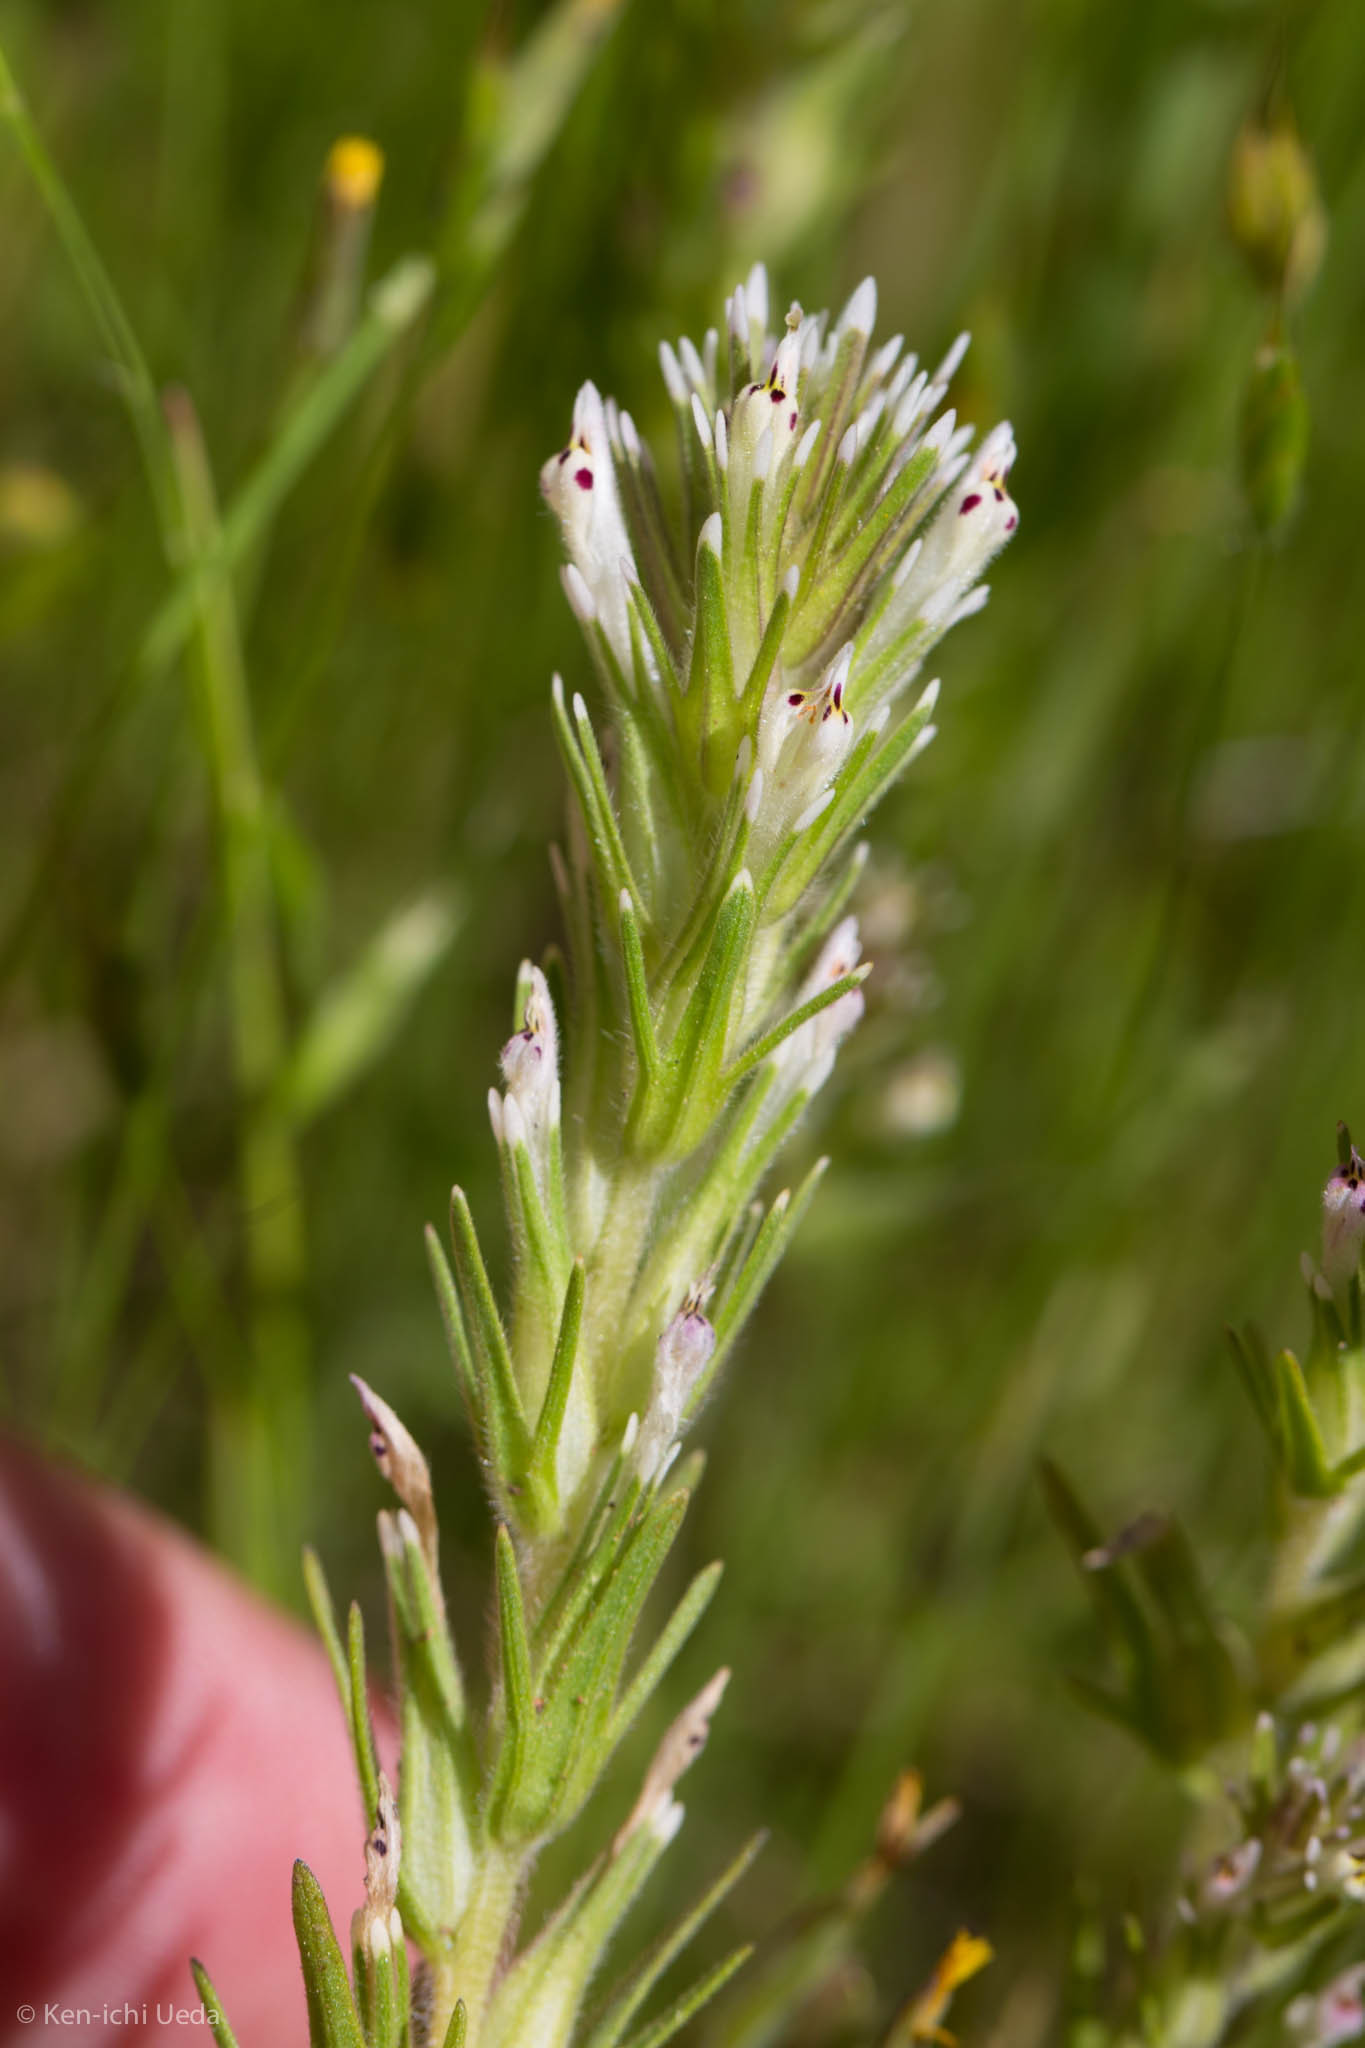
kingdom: Plantae
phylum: Tracheophyta
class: Magnoliopsida
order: Lamiales
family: Orobanchaceae
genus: Castilleja
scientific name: Castilleja attenuata
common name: Valley tassels
